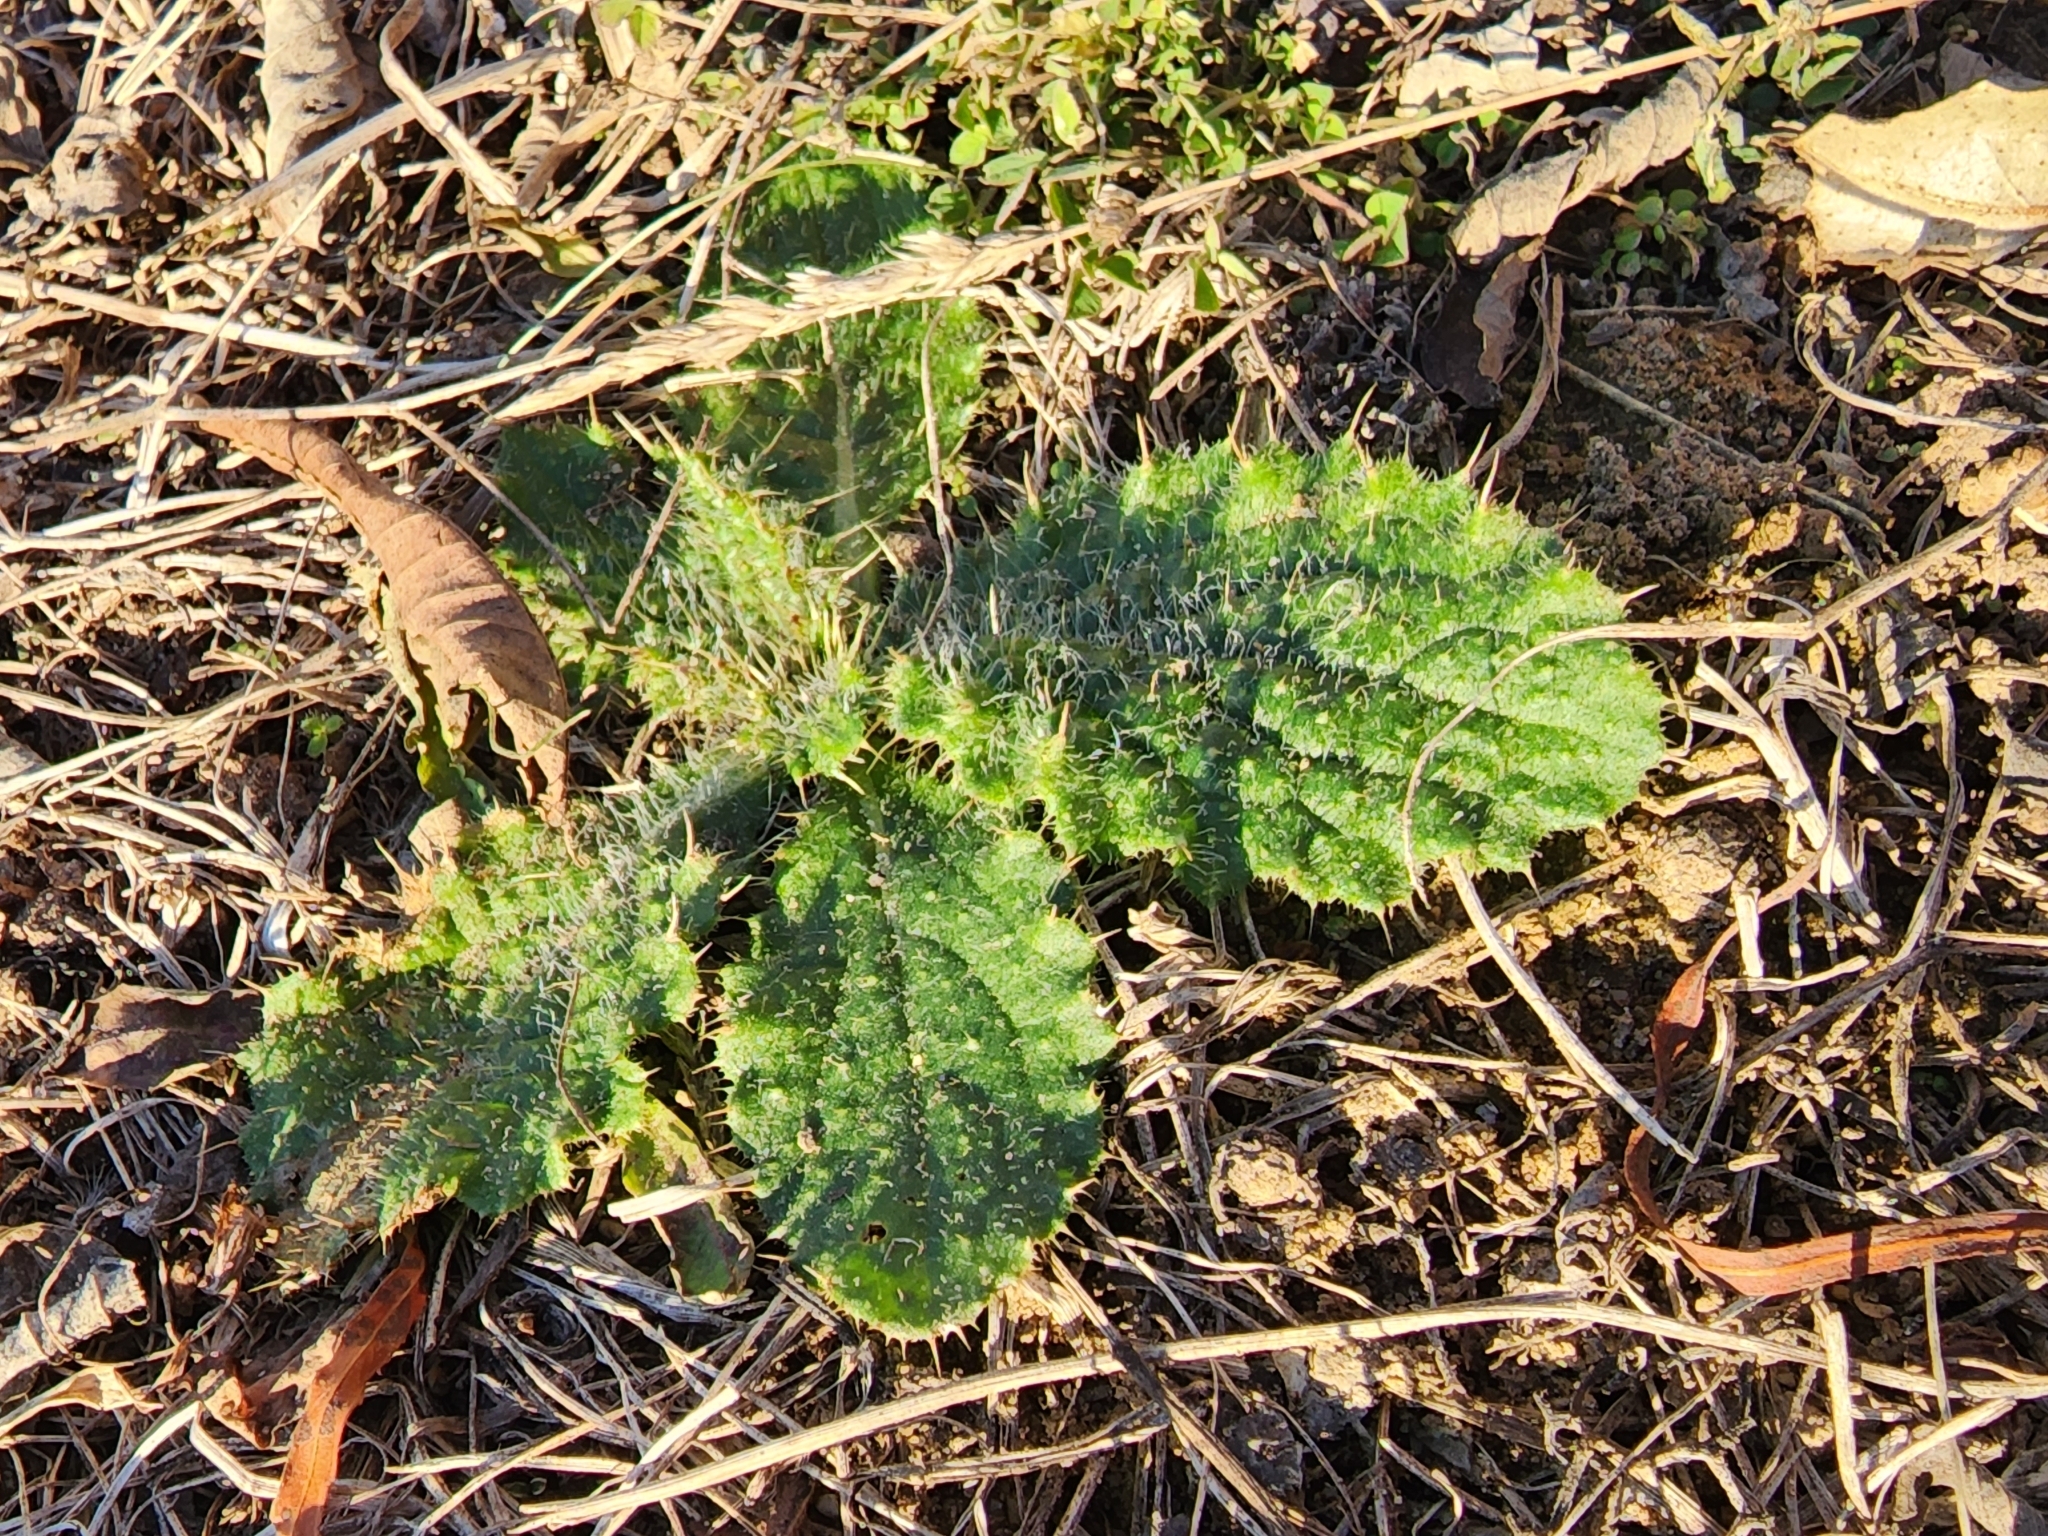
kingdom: Plantae
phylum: Tracheophyta
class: Magnoliopsida
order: Asterales
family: Asteraceae
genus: Cirsium
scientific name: Cirsium vulgare
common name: Bull thistle
